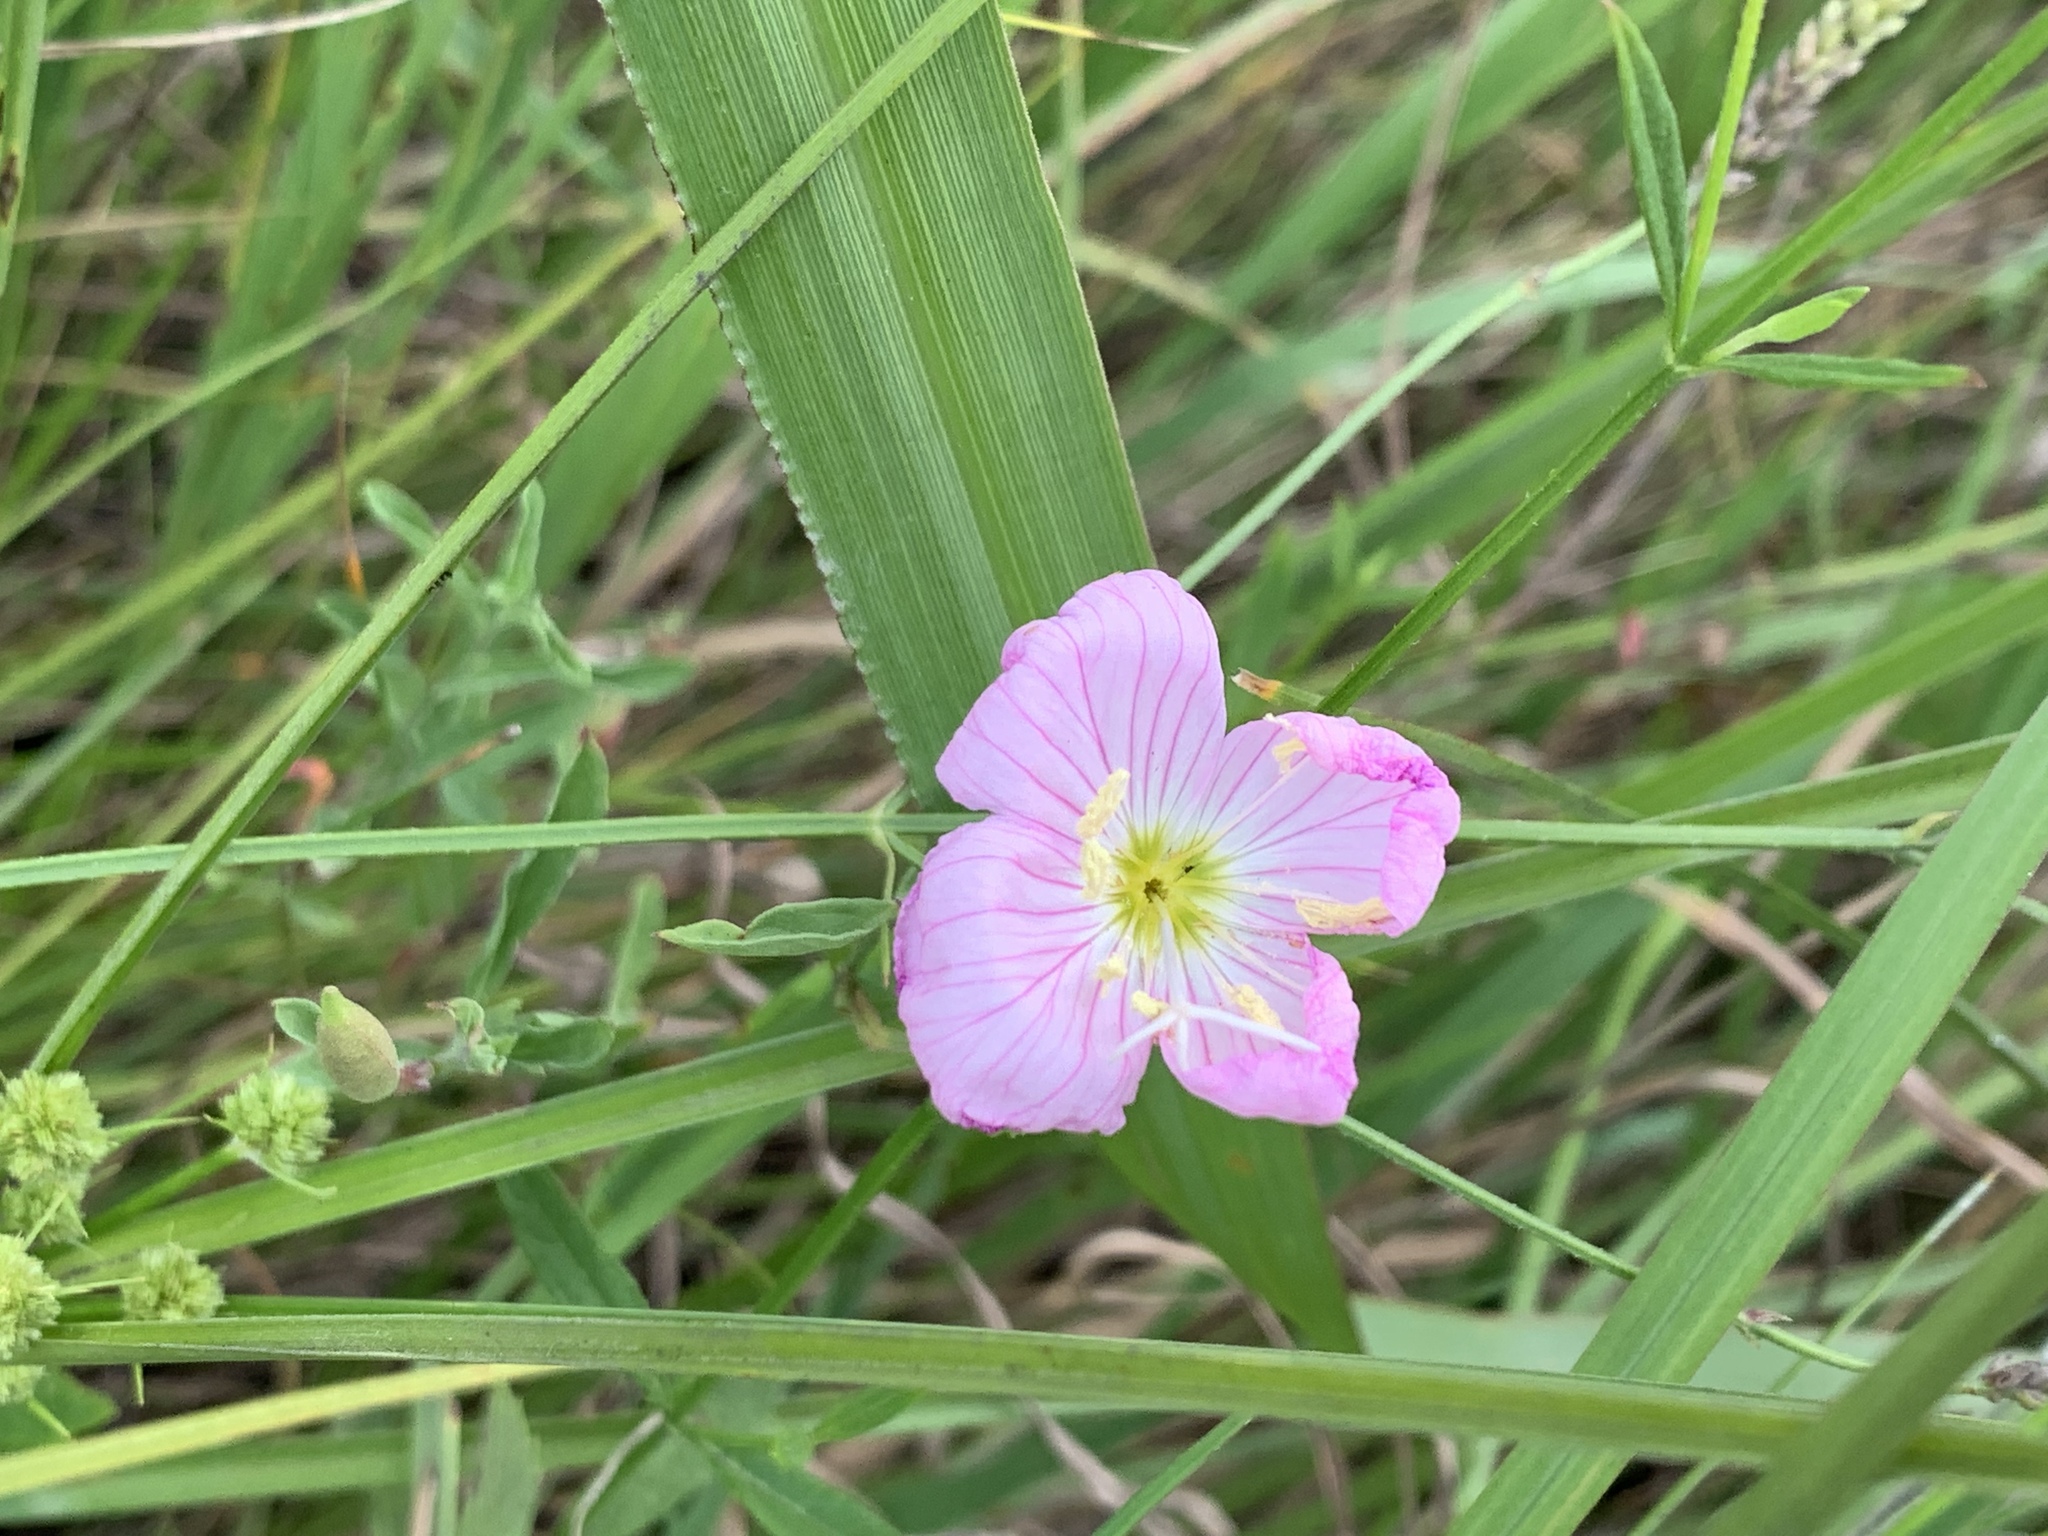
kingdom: Plantae
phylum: Tracheophyta
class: Magnoliopsida
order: Myrtales
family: Onagraceae
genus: Oenothera
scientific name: Oenothera speciosa
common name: White evening-primrose
